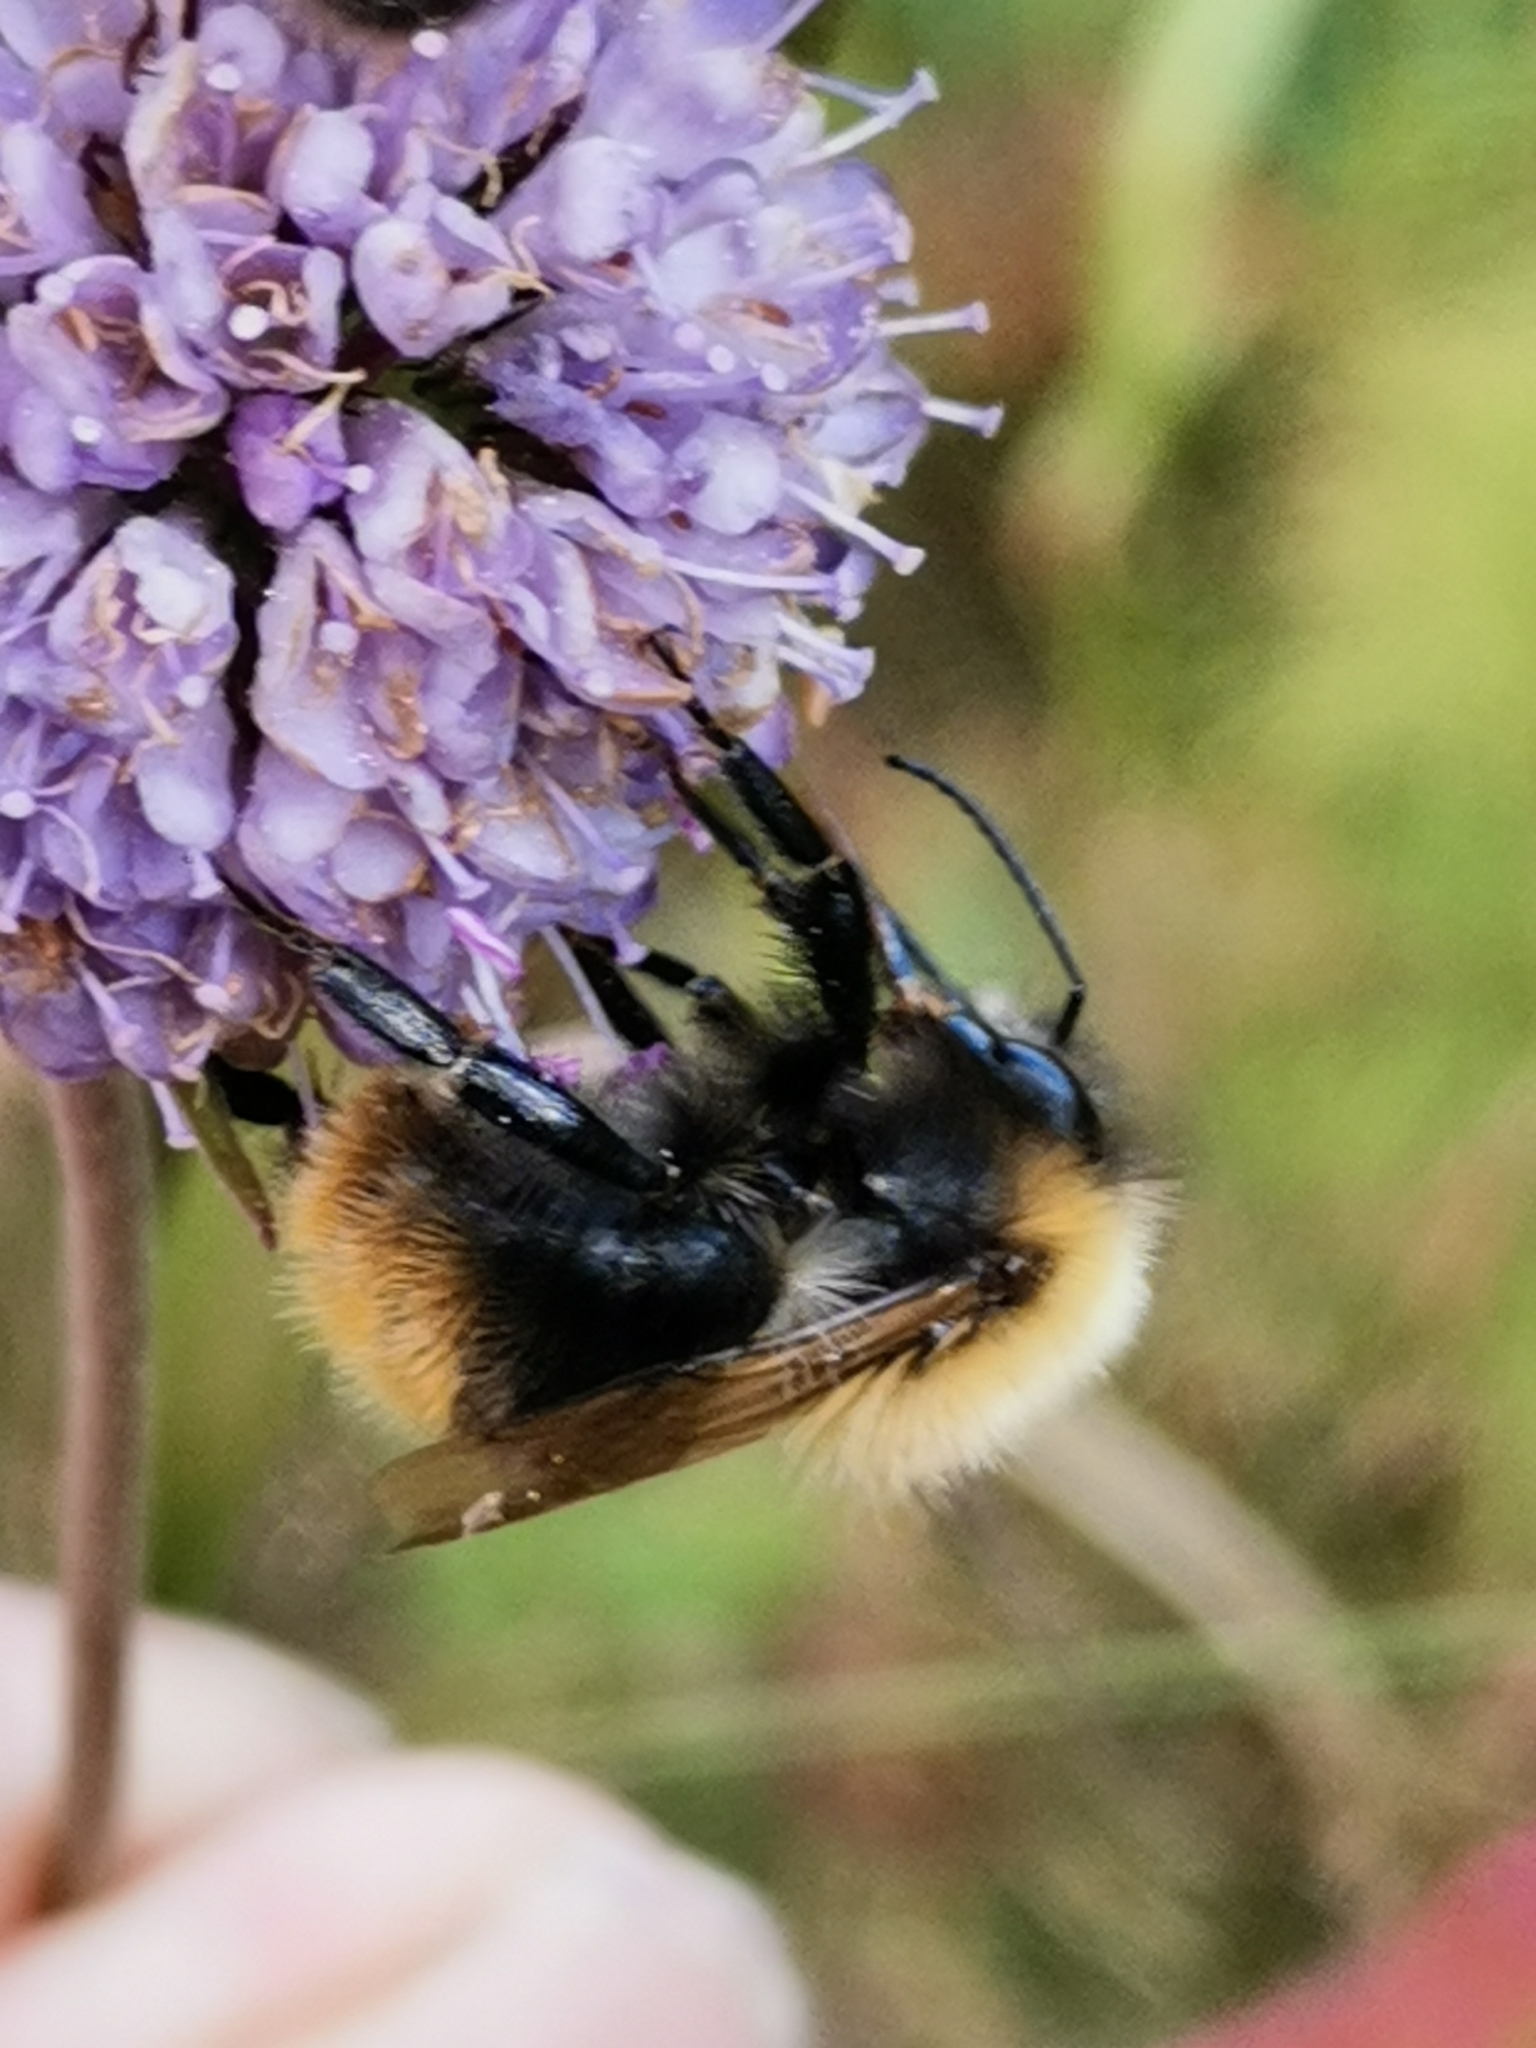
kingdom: Animalia
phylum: Arthropoda
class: Insecta
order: Hymenoptera
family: Apidae
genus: Bombus
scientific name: Bombus pascuorum
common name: Common carder bee
